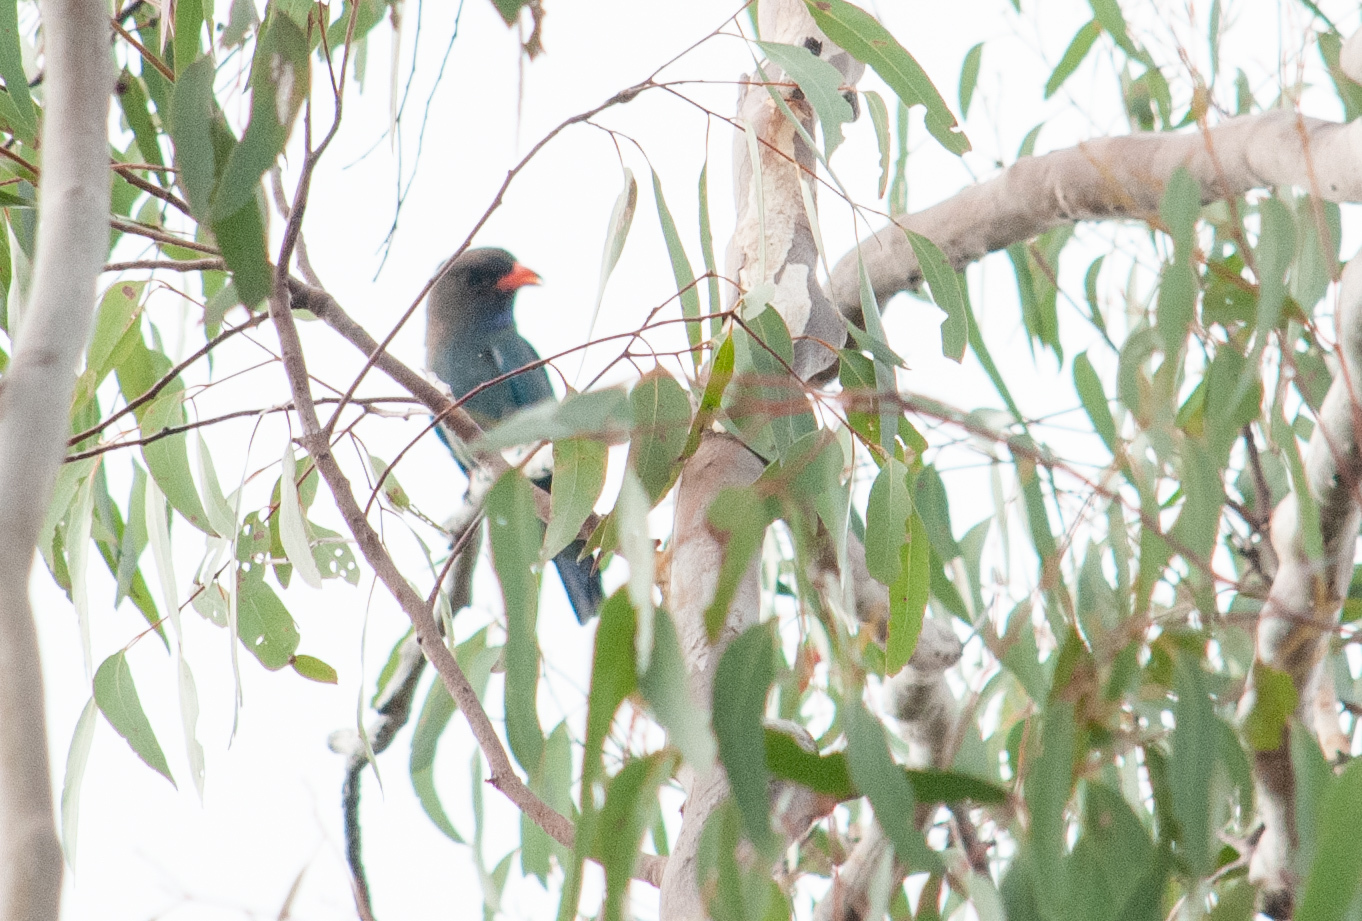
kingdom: Animalia
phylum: Chordata
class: Aves
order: Coraciiformes
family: Coraciidae
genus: Eurystomus
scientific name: Eurystomus orientalis
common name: Oriental dollarbird
